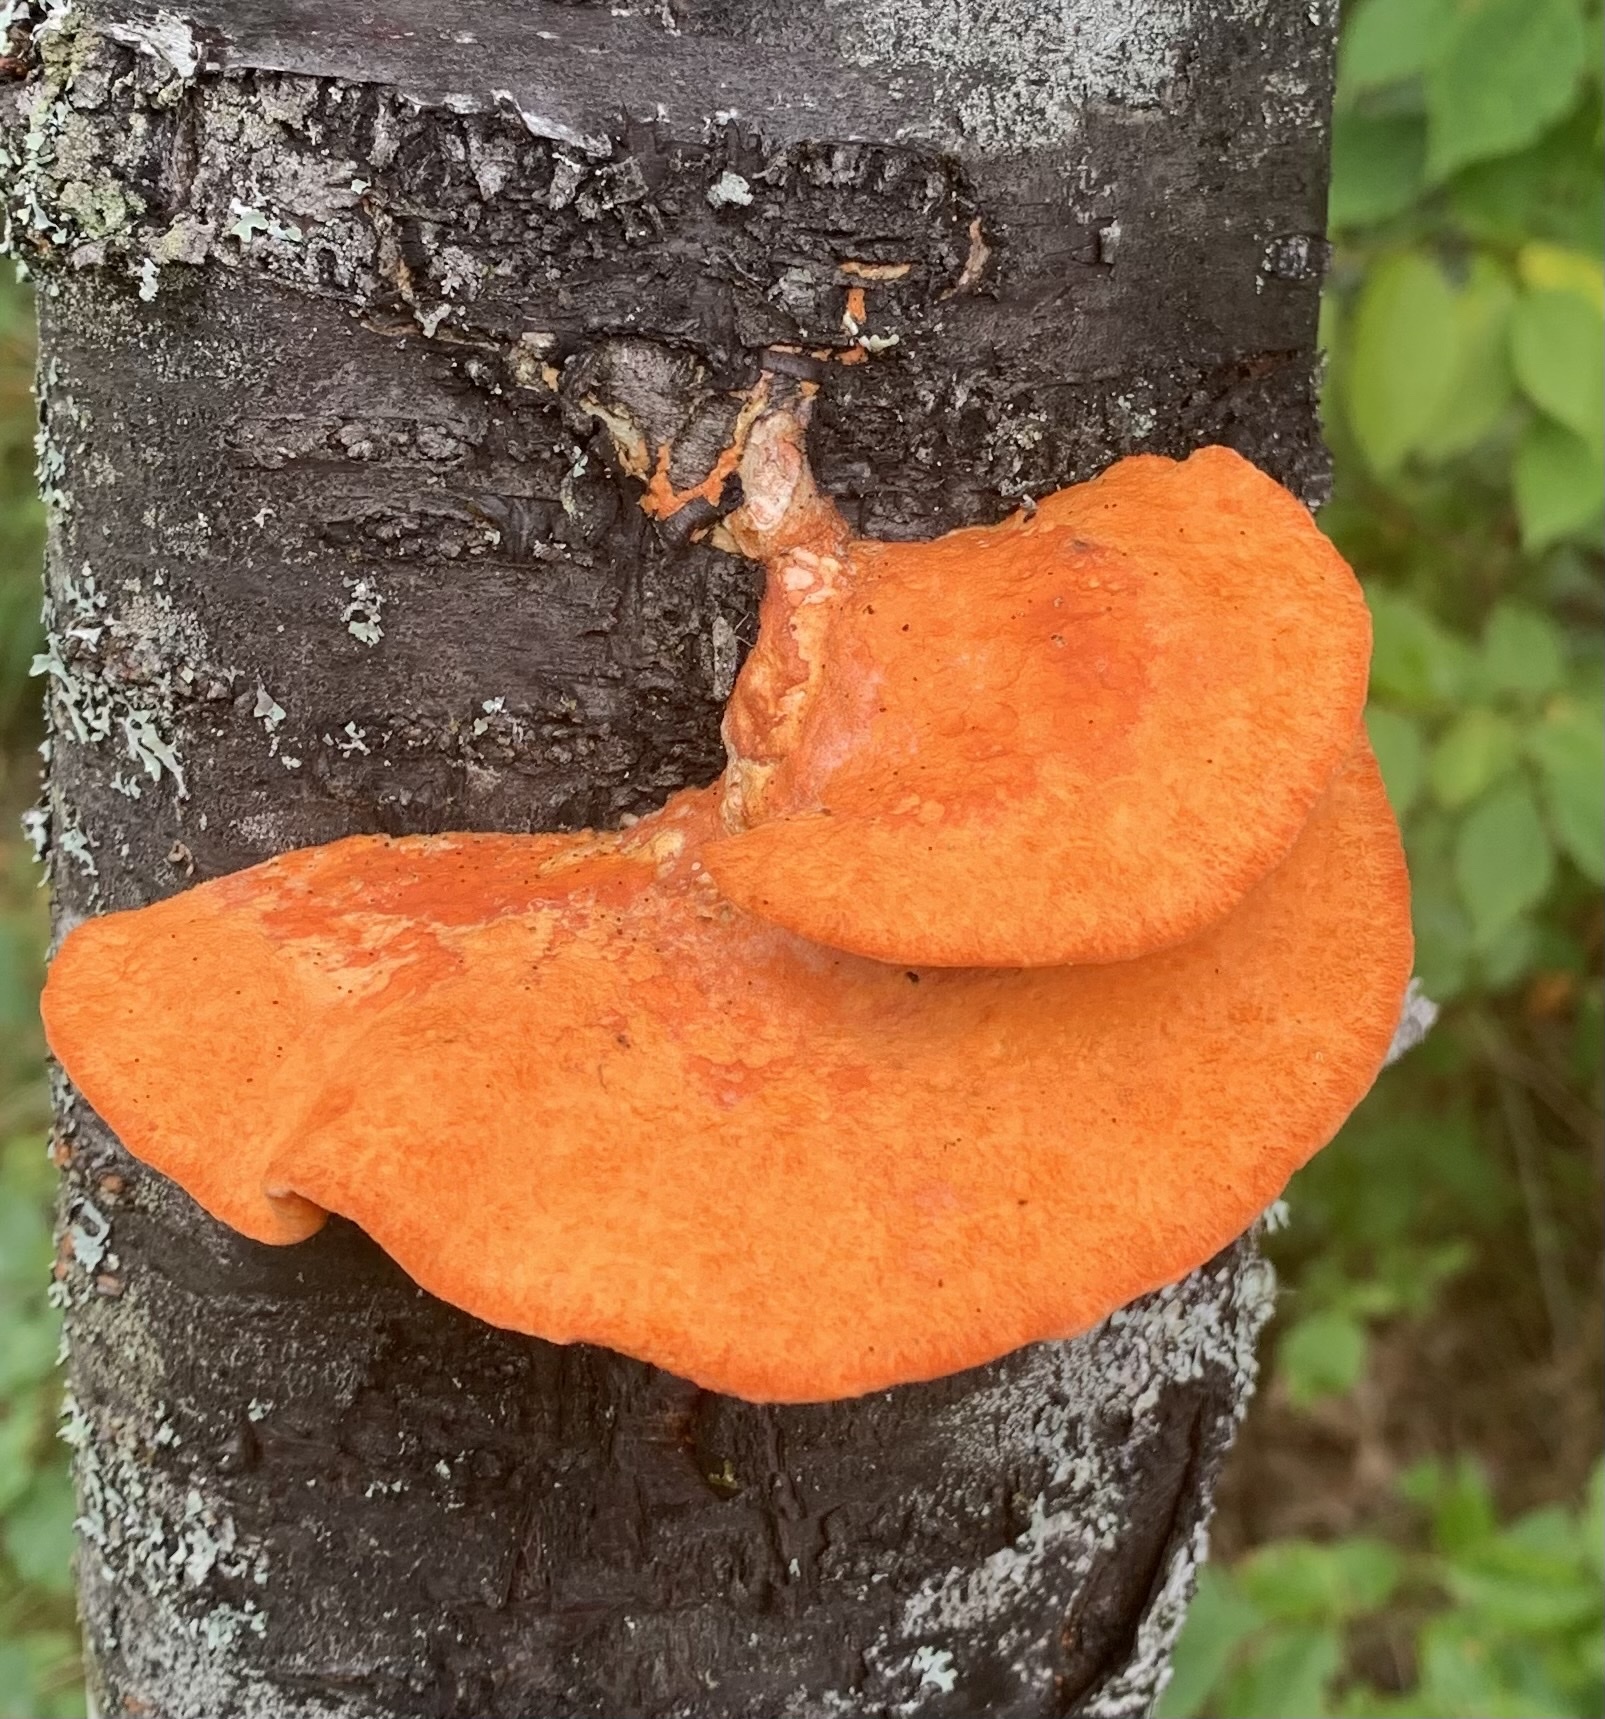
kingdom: Fungi
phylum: Basidiomycota
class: Agaricomycetes
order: Polyporales
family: Polyporaceae
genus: Trametes
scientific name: Trametes cinnabarina
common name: Northern cinnabar polypore
